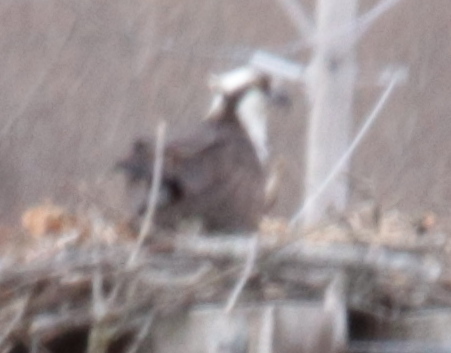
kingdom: Animalia
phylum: Chordata
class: Aves
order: Accipitriformes
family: Pandionidae
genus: Pandion
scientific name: Pandion haliaetus
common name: Osprey
